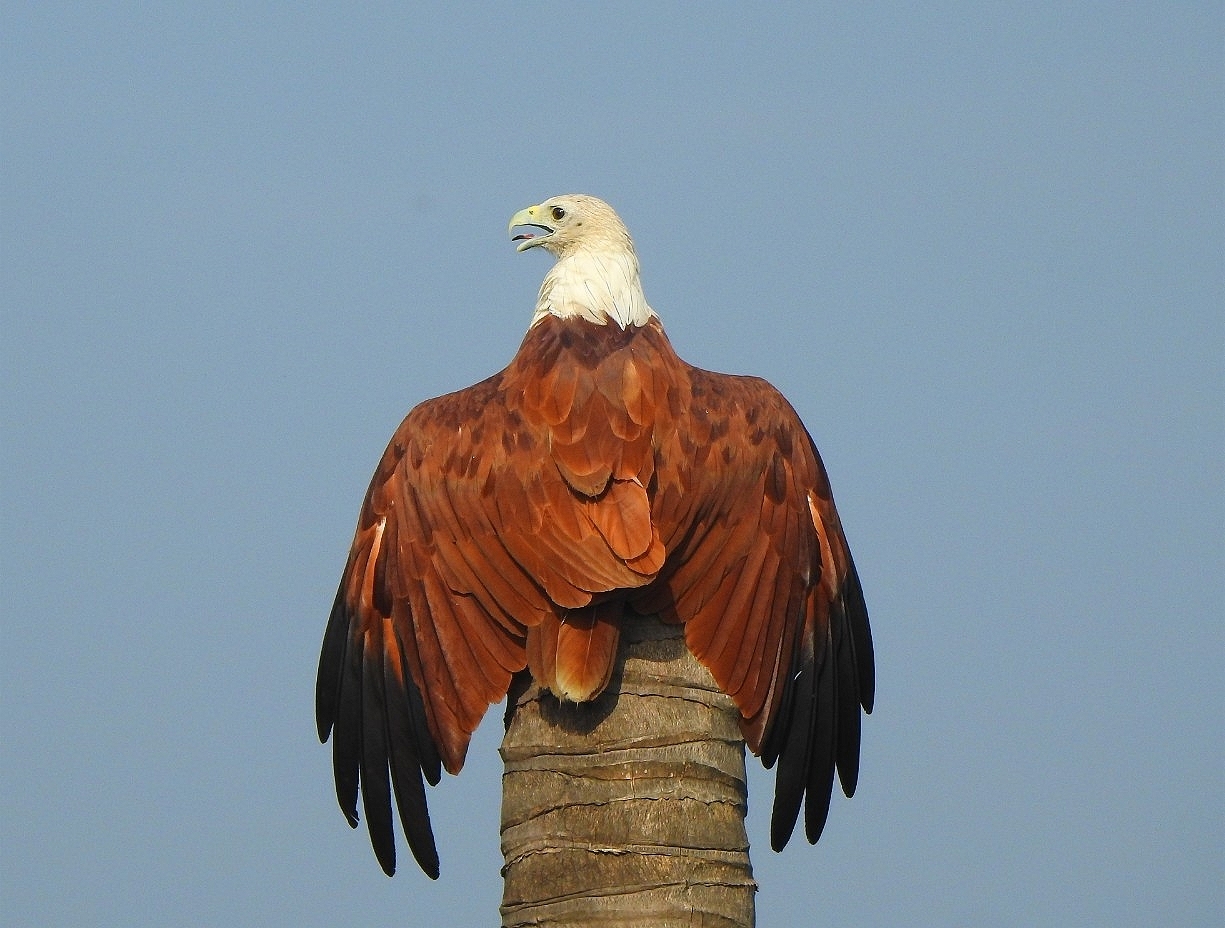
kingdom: Animalia
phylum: Chordata
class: Aves
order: Accipitriformes
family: Accipitridae
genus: Haliastur
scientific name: Haliastur indus
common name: Brahminy kite
